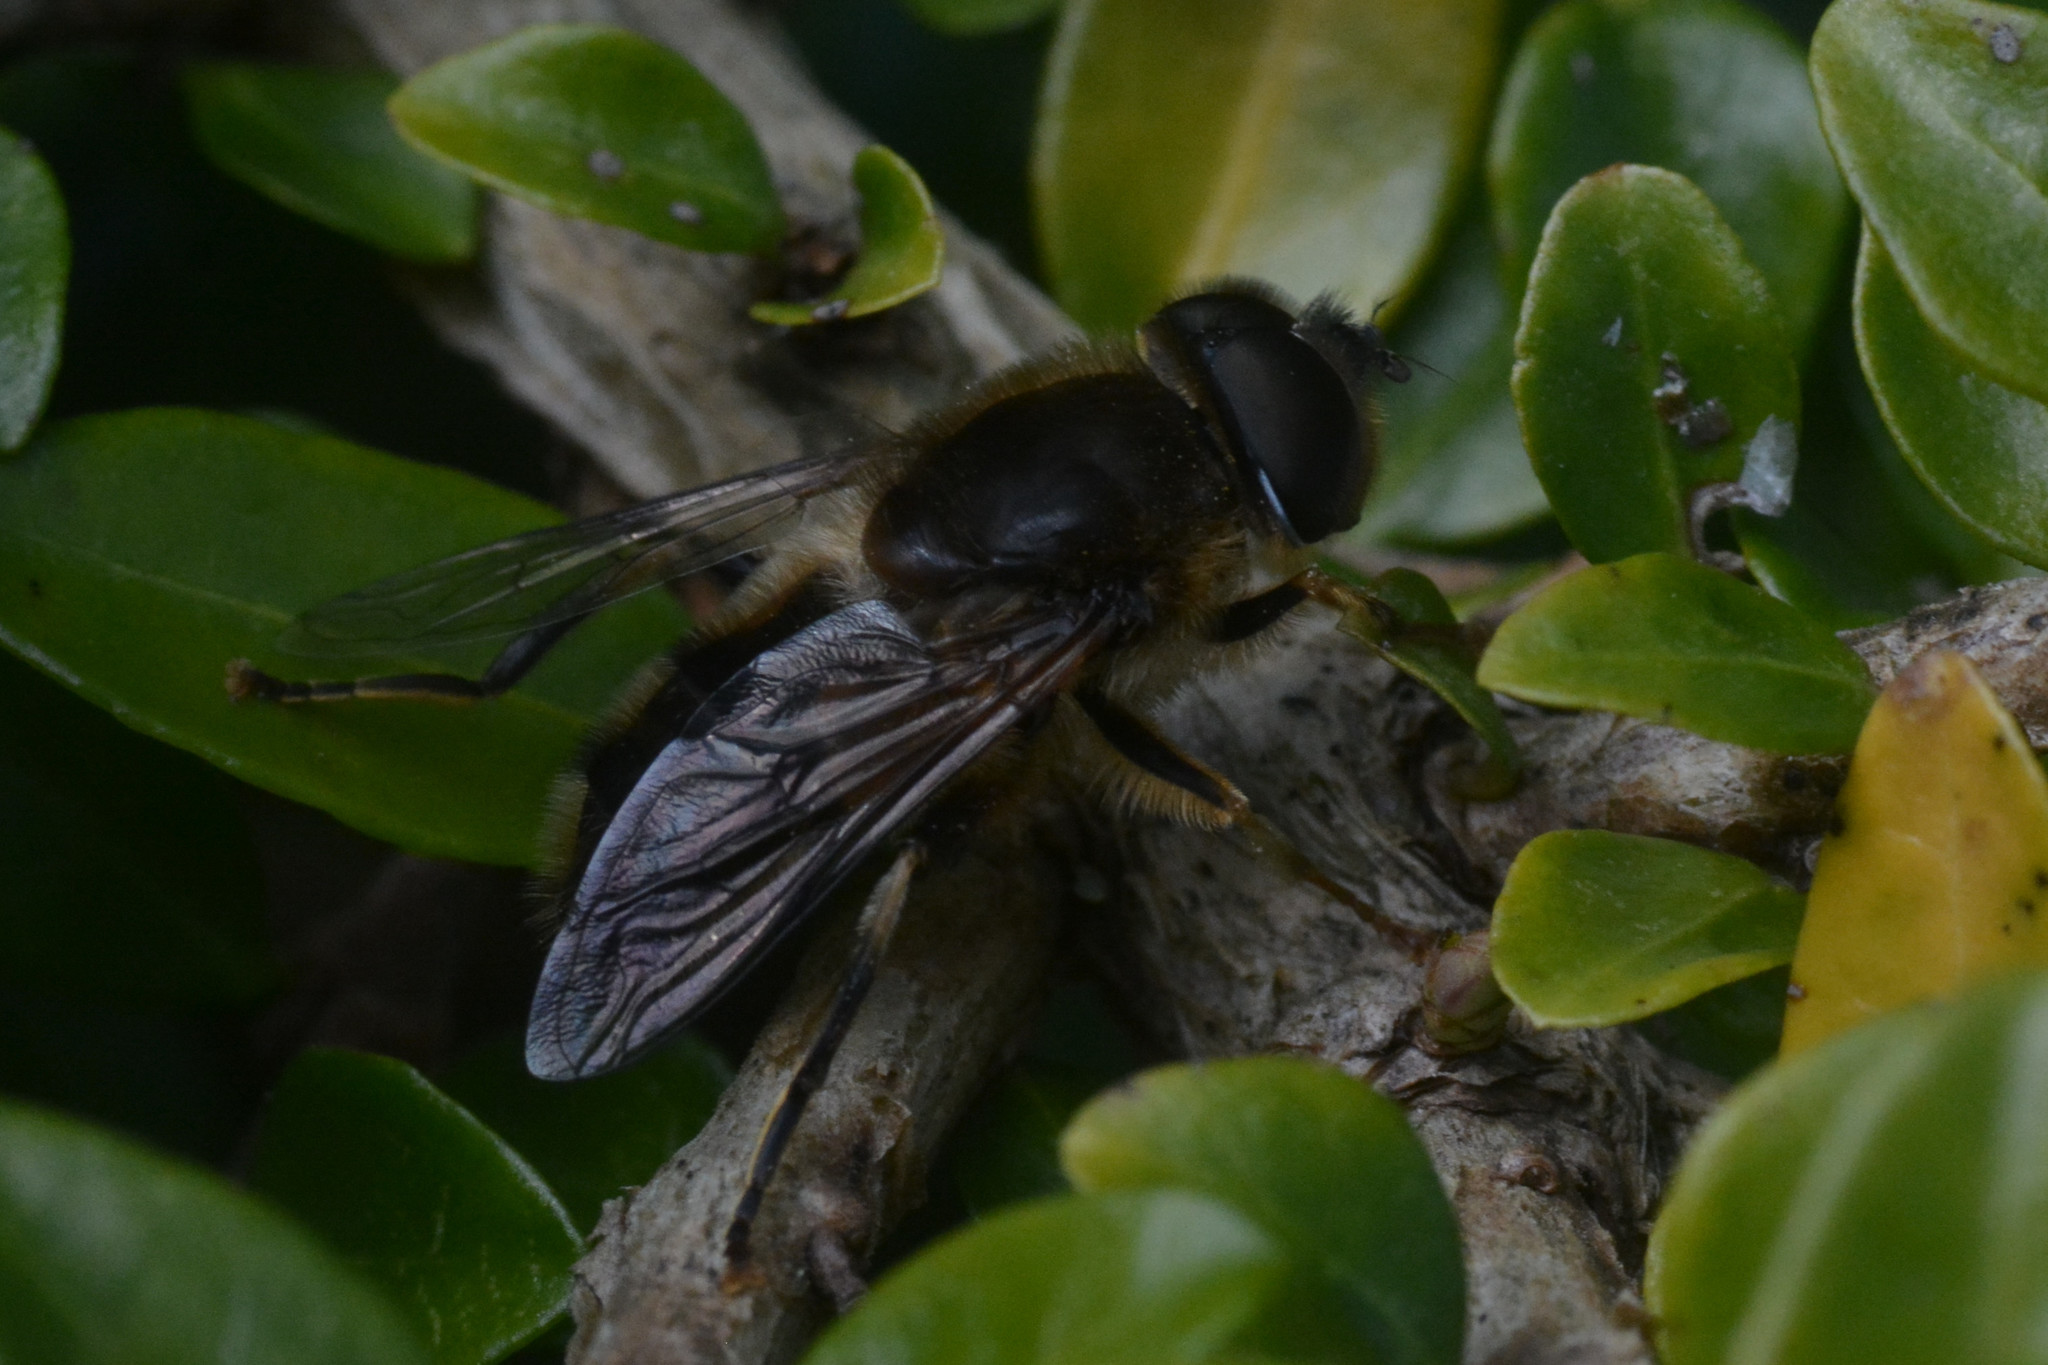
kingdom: Animalia
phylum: Arthropoda
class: Insecta
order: Diptera
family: Syrphidae
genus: Eristalis
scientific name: Eristalis pertinax
